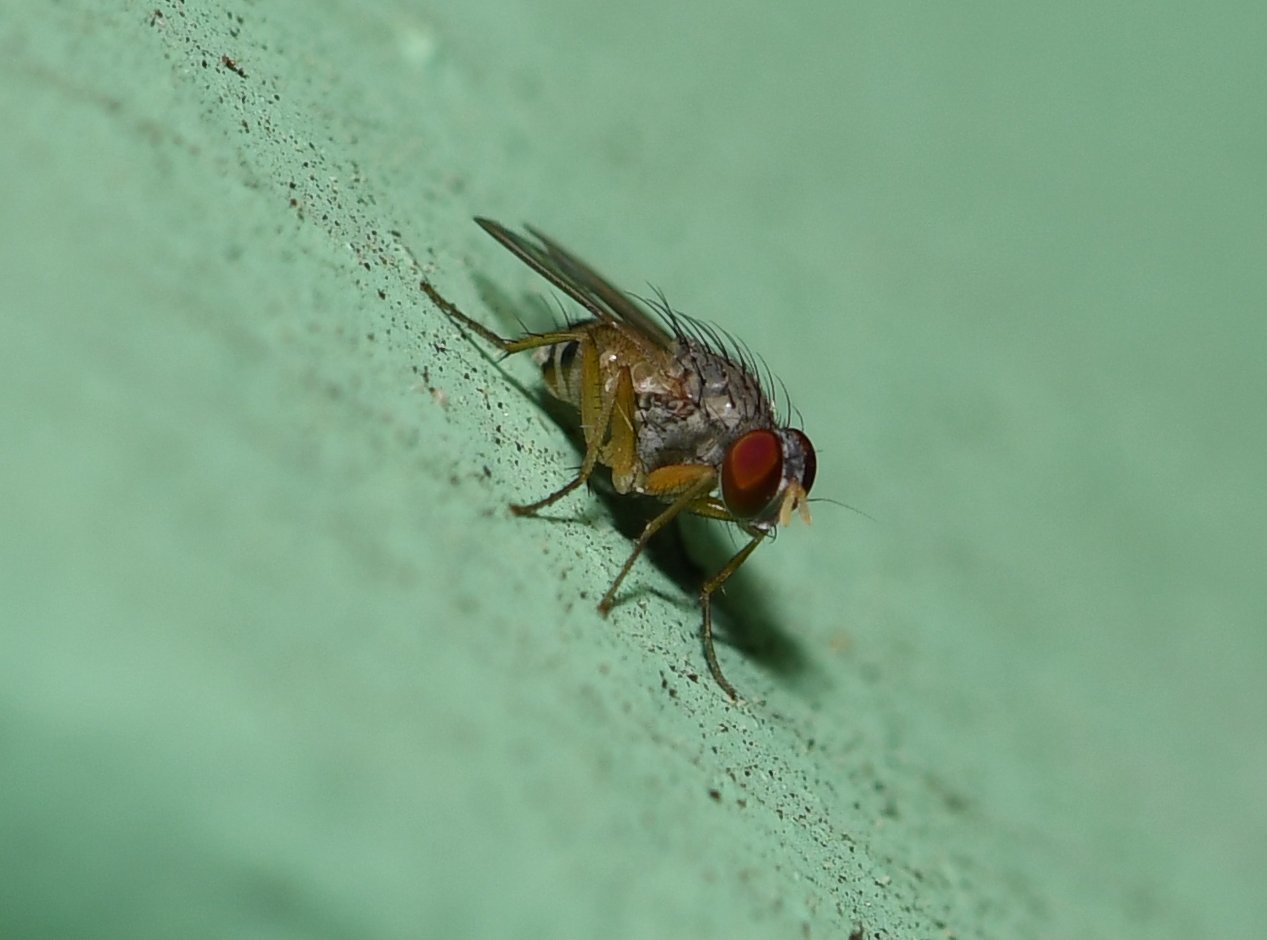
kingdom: Animalia
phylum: Arthropoda
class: Insecta
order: Diptera
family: Muscidae
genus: Neodexiopsis
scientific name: Neodexiopsis calopyga
